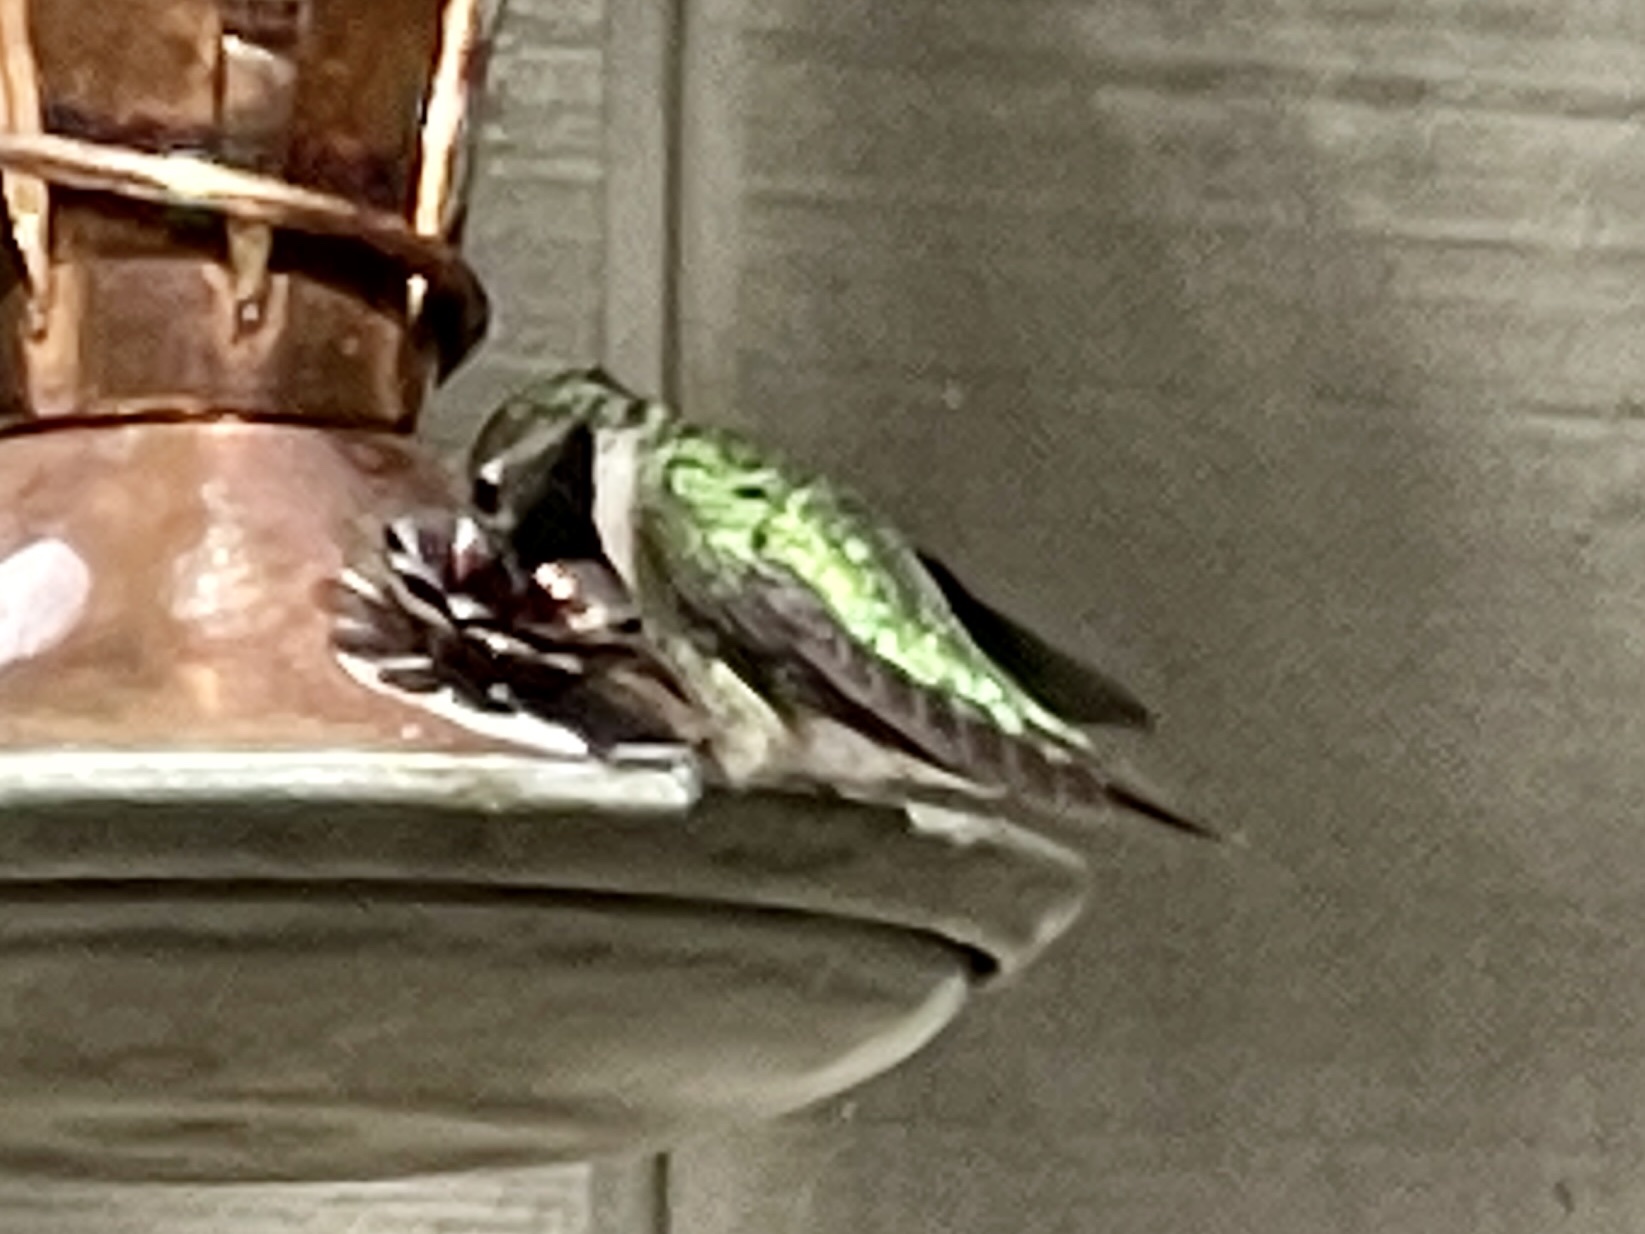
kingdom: Animalia
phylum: Chordata
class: Aves
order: Apodiformes
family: Trochilidae
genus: Selasphorus
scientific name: Selasphorus platycercus
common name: Broad-tailed hummingbird
